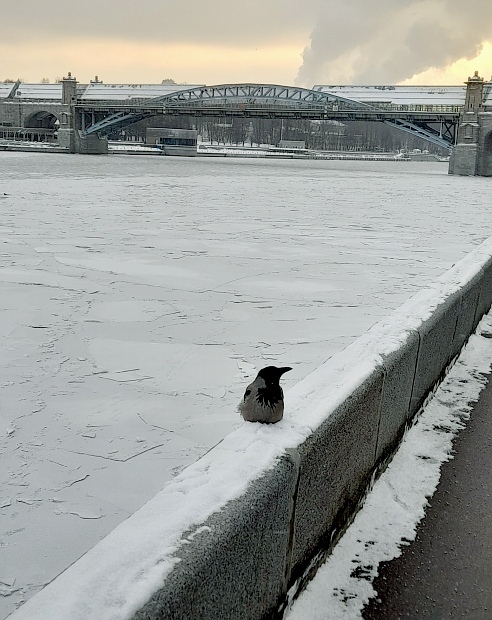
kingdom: Animalia
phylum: Chordata
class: Aves
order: Passeriformes
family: Corvidae
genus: Corvus
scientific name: Corvus cornix
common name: Hooded crow
